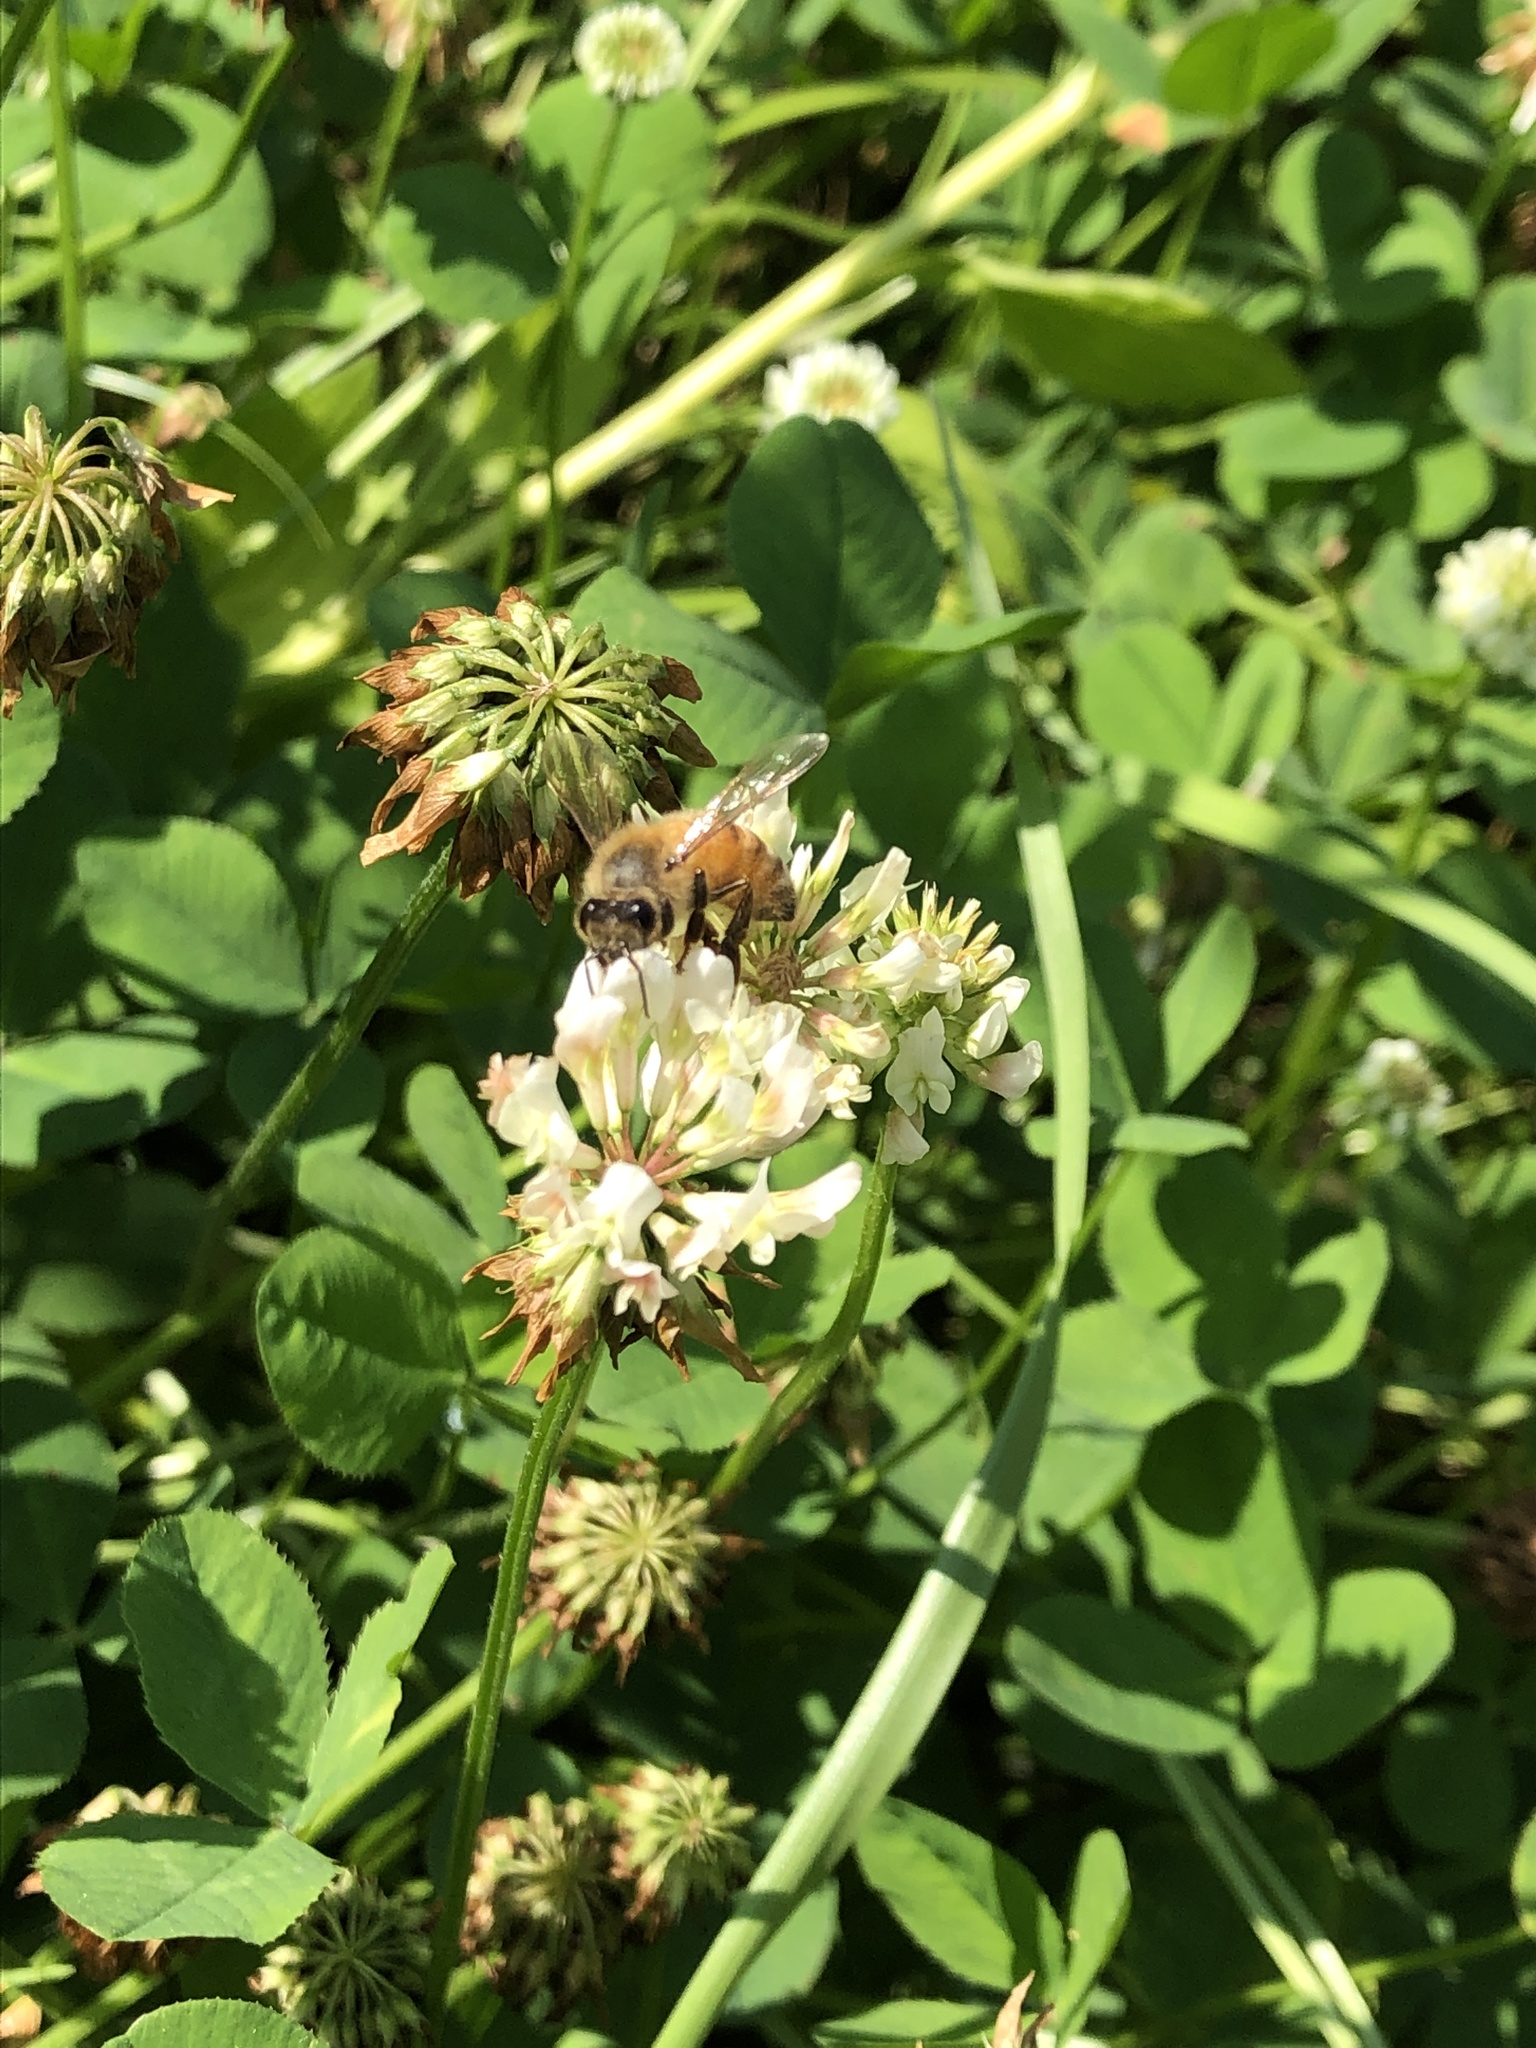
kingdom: Animalia
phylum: Arthropoda
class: Insecta
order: Hymenoptera
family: Apidae
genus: Apis
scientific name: Apis mellifera
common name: Honey bee
